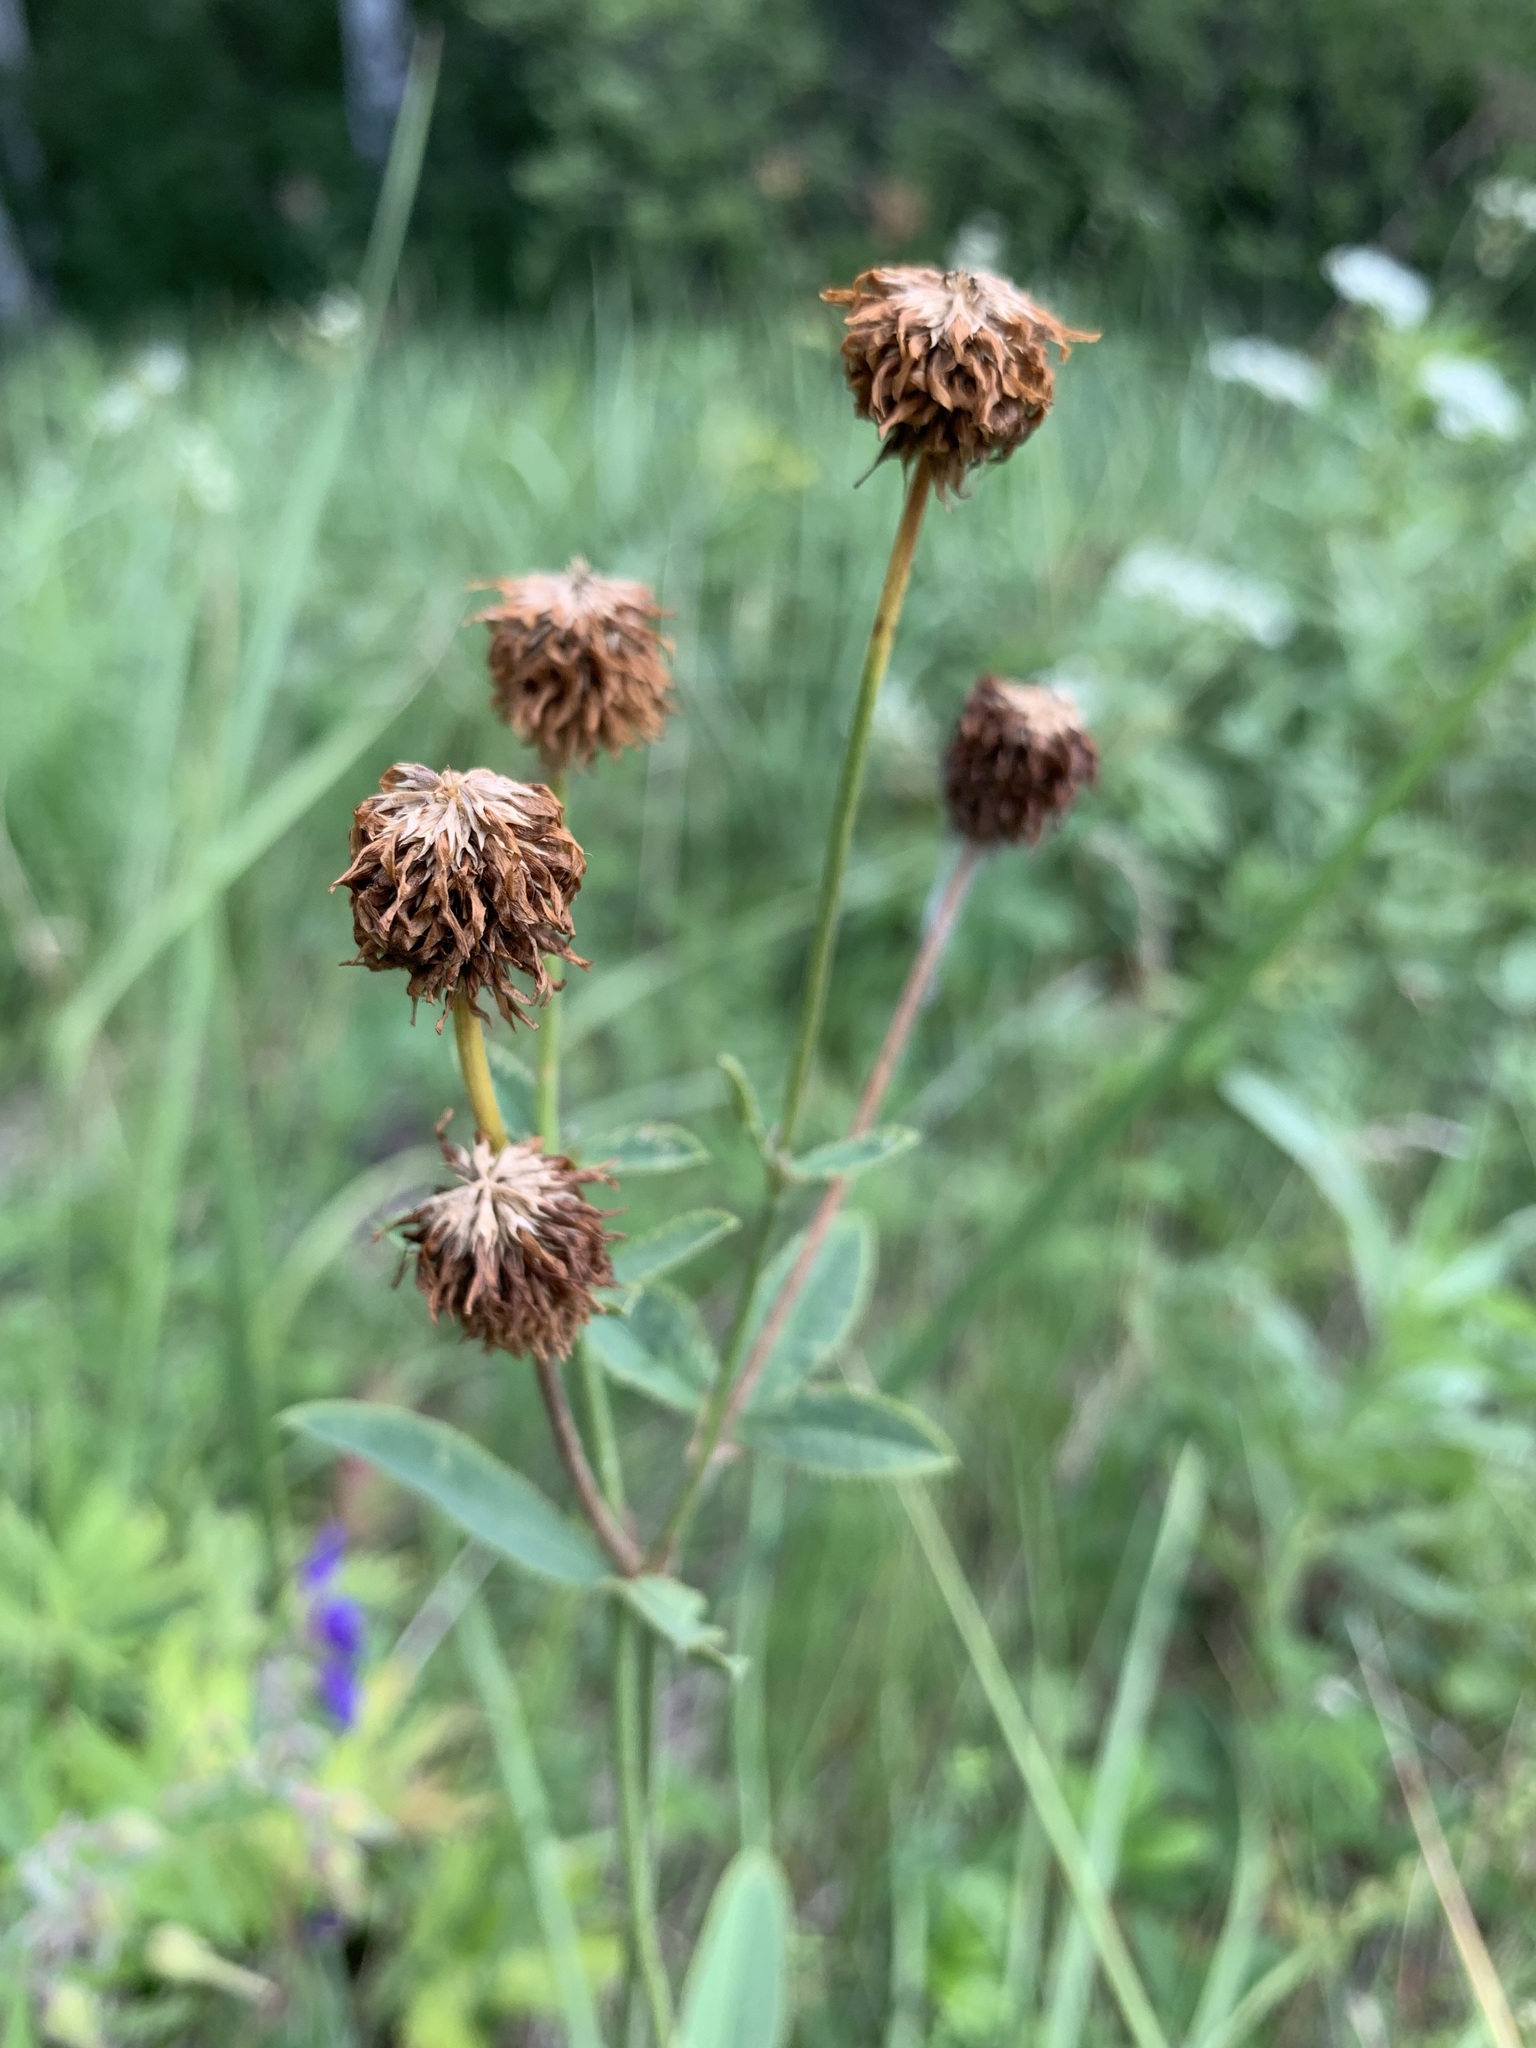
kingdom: Plantae
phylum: Tracheophyta
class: Magnoliopsida
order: Fabales
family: Fabaceae
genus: Trifolium
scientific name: Trifolium montanum
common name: Mountain clover
